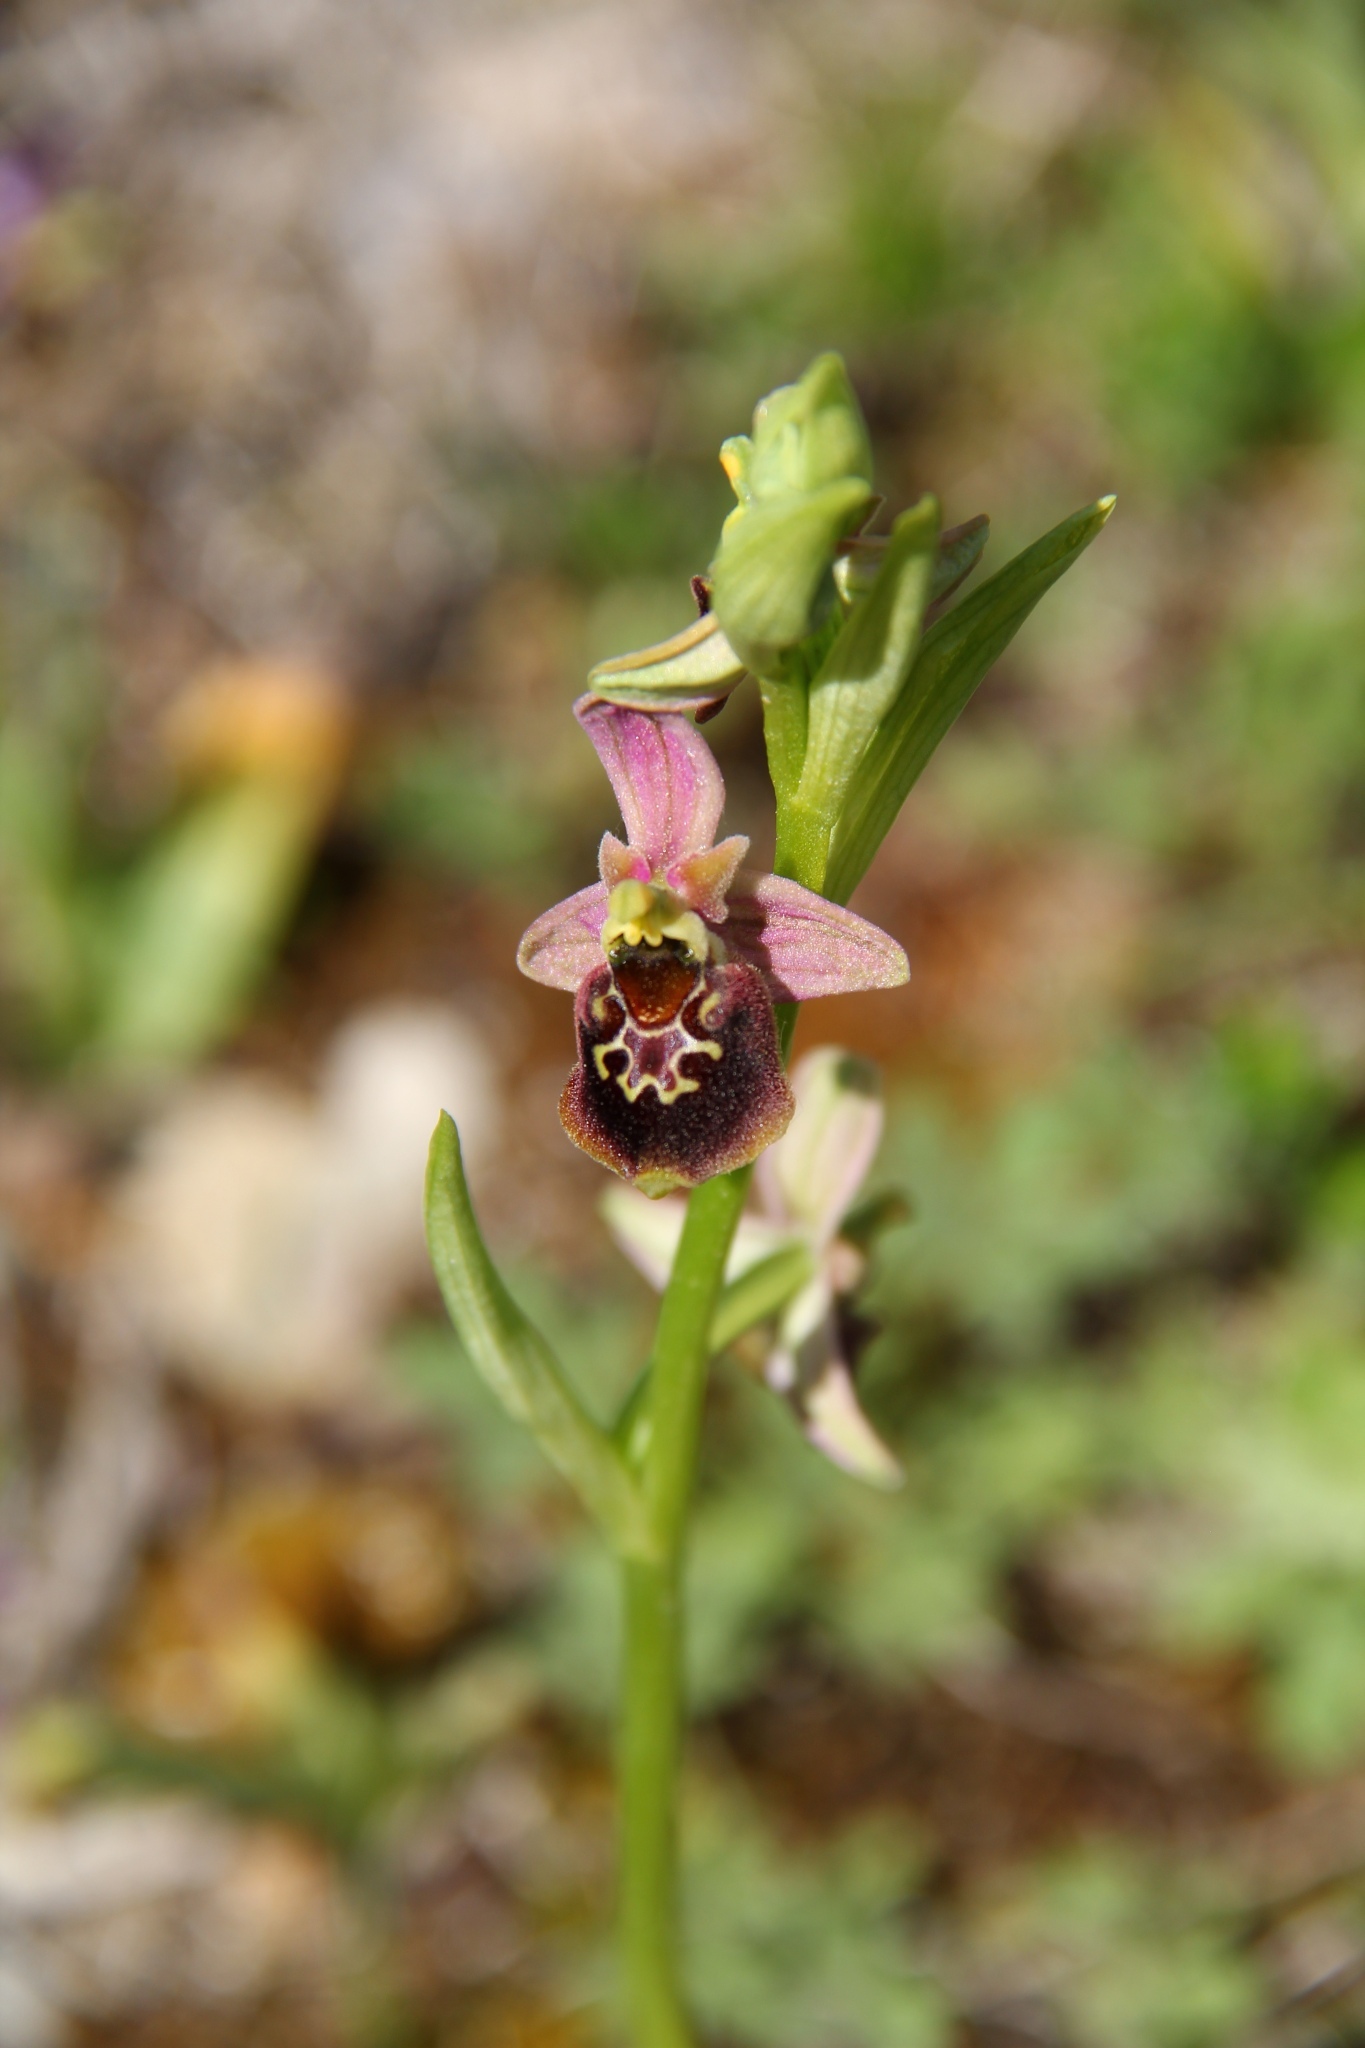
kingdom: Plantae
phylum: Tracheophyta
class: Liliopsida
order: Asparagales
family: Orchidaceae
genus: Ophrys
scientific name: Ophrys holosericea
